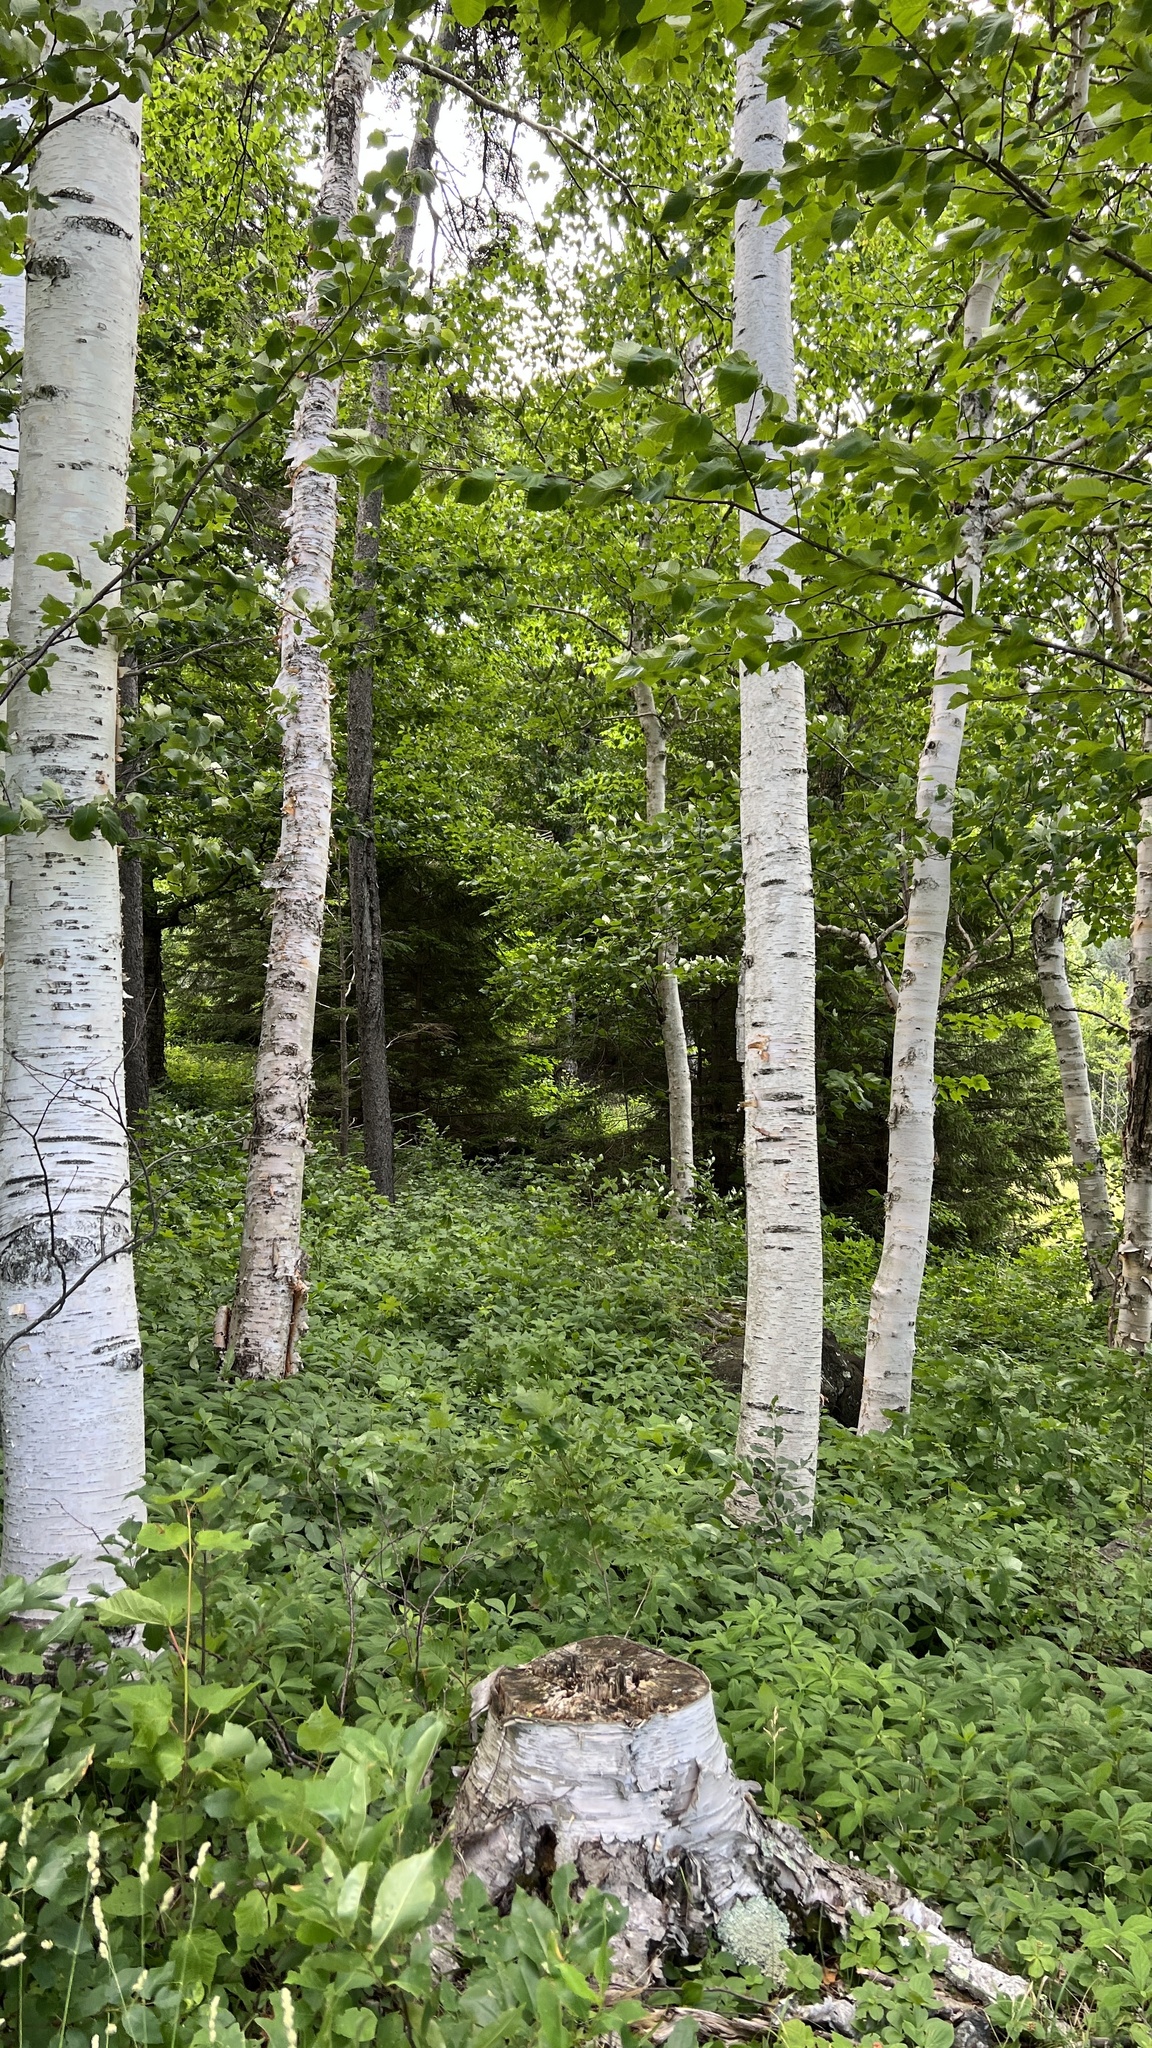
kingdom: Plantae
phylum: Tracheophyta
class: Magnoliopsida
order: Fagales
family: Betulaceae
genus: Betula
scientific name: Betula papyrifera
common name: Paper birch
